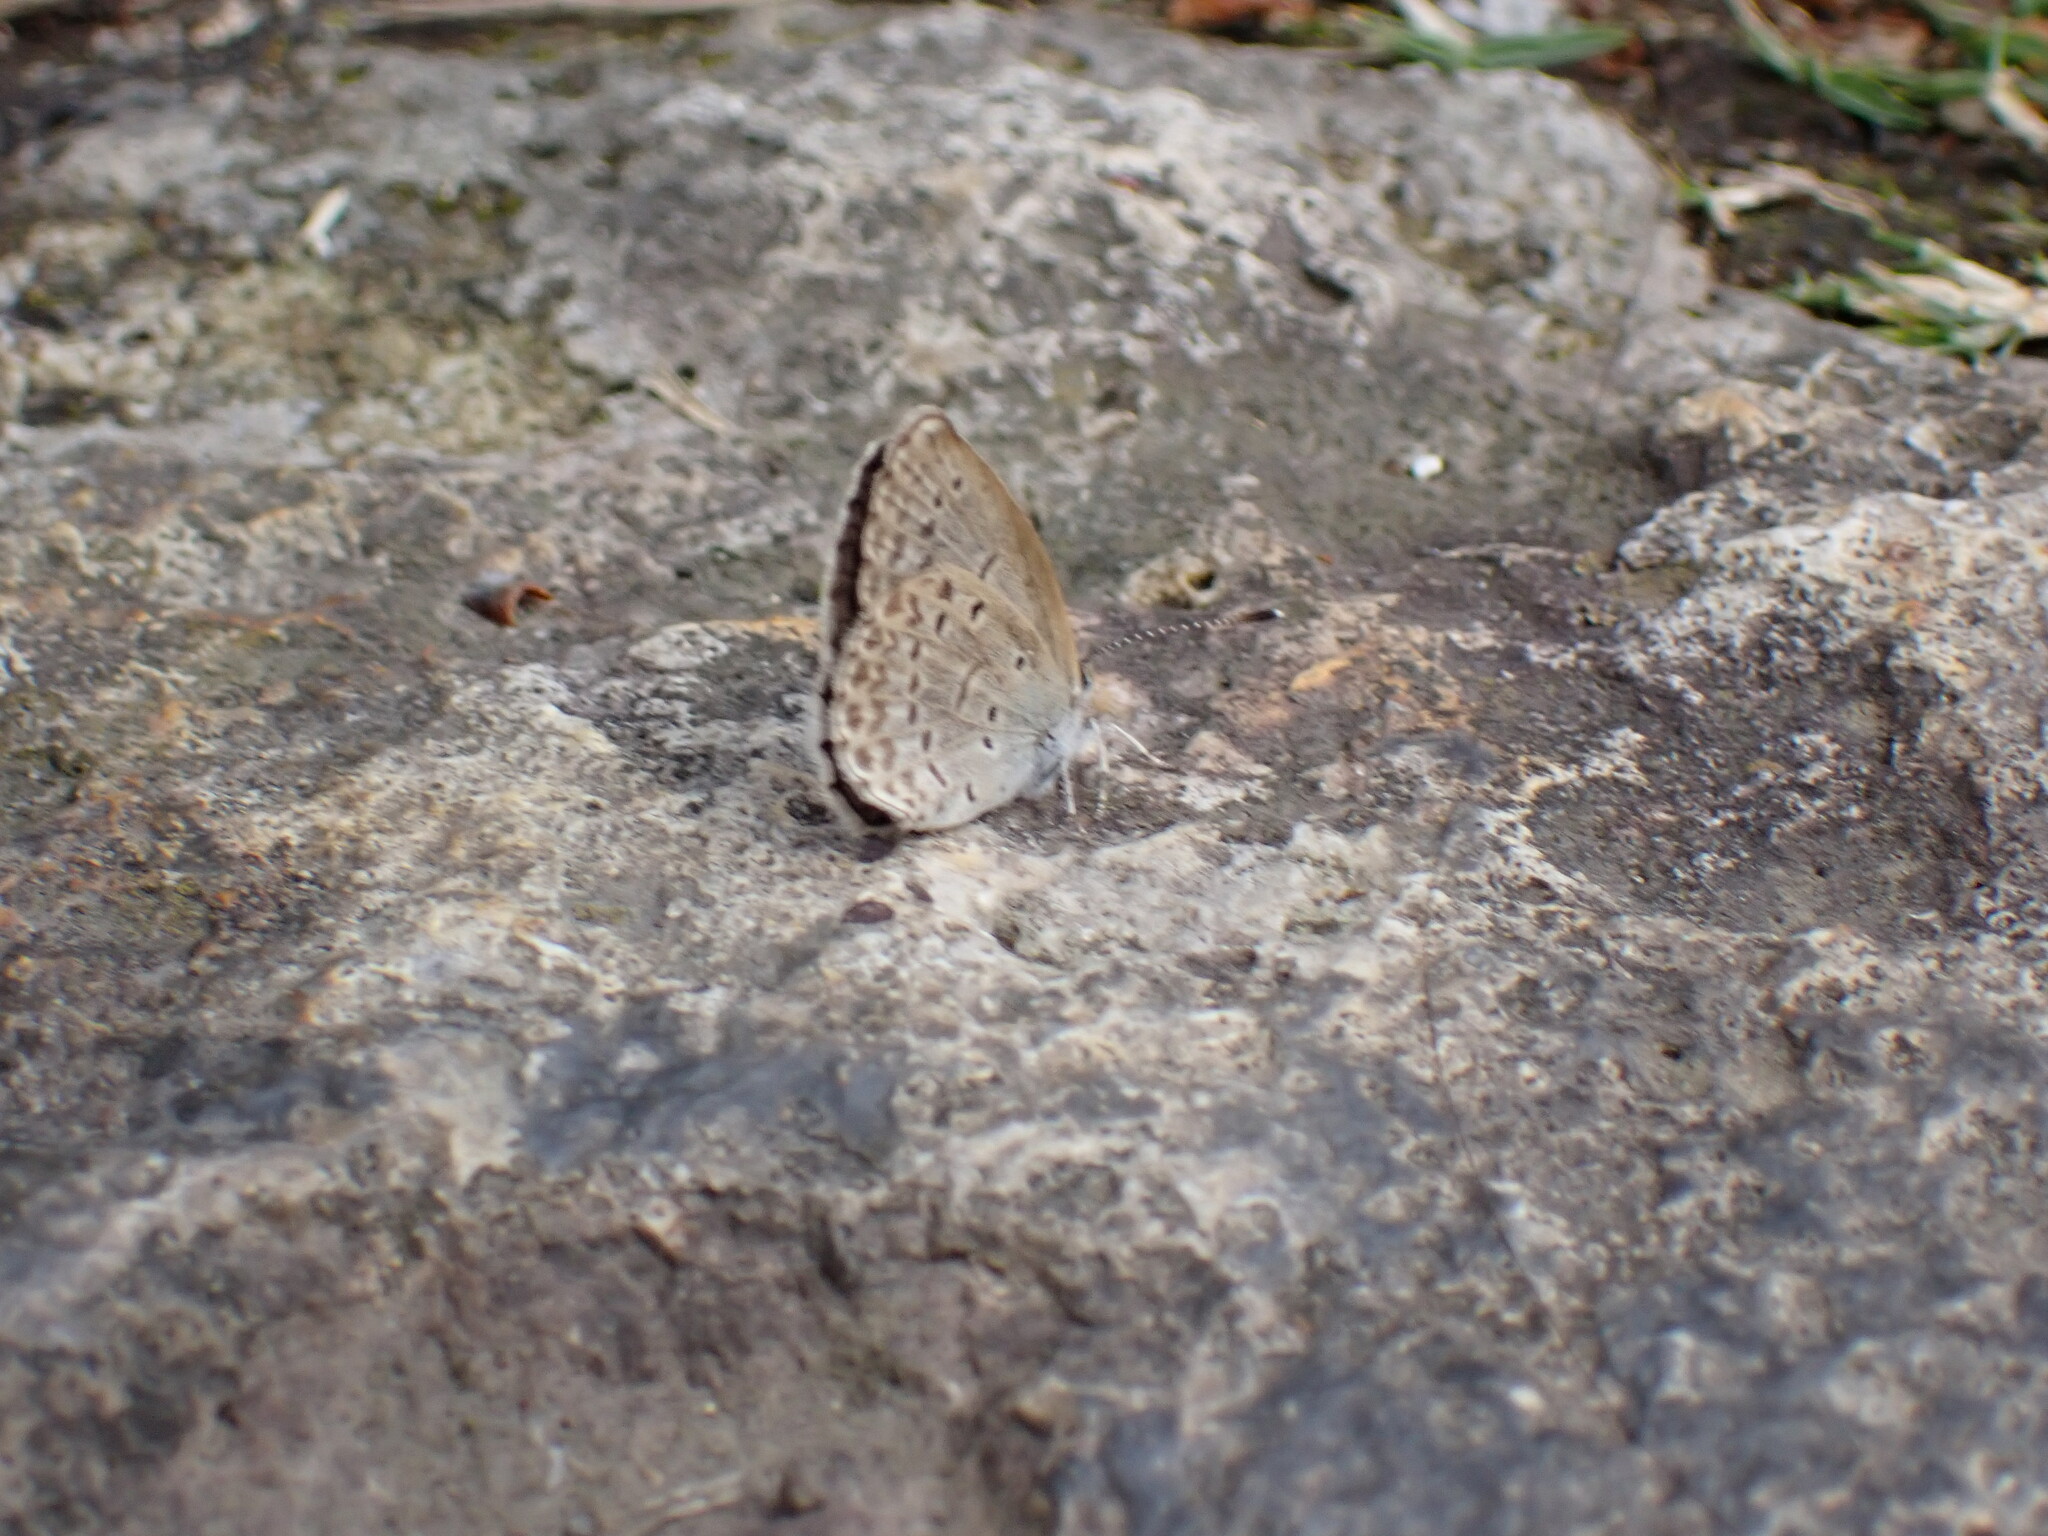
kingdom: Animalia
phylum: Arthropoda
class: Insecta
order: Lepidoptera
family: Lycaenidae
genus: Pseudozizeeria
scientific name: Pseudozizeeria maha
